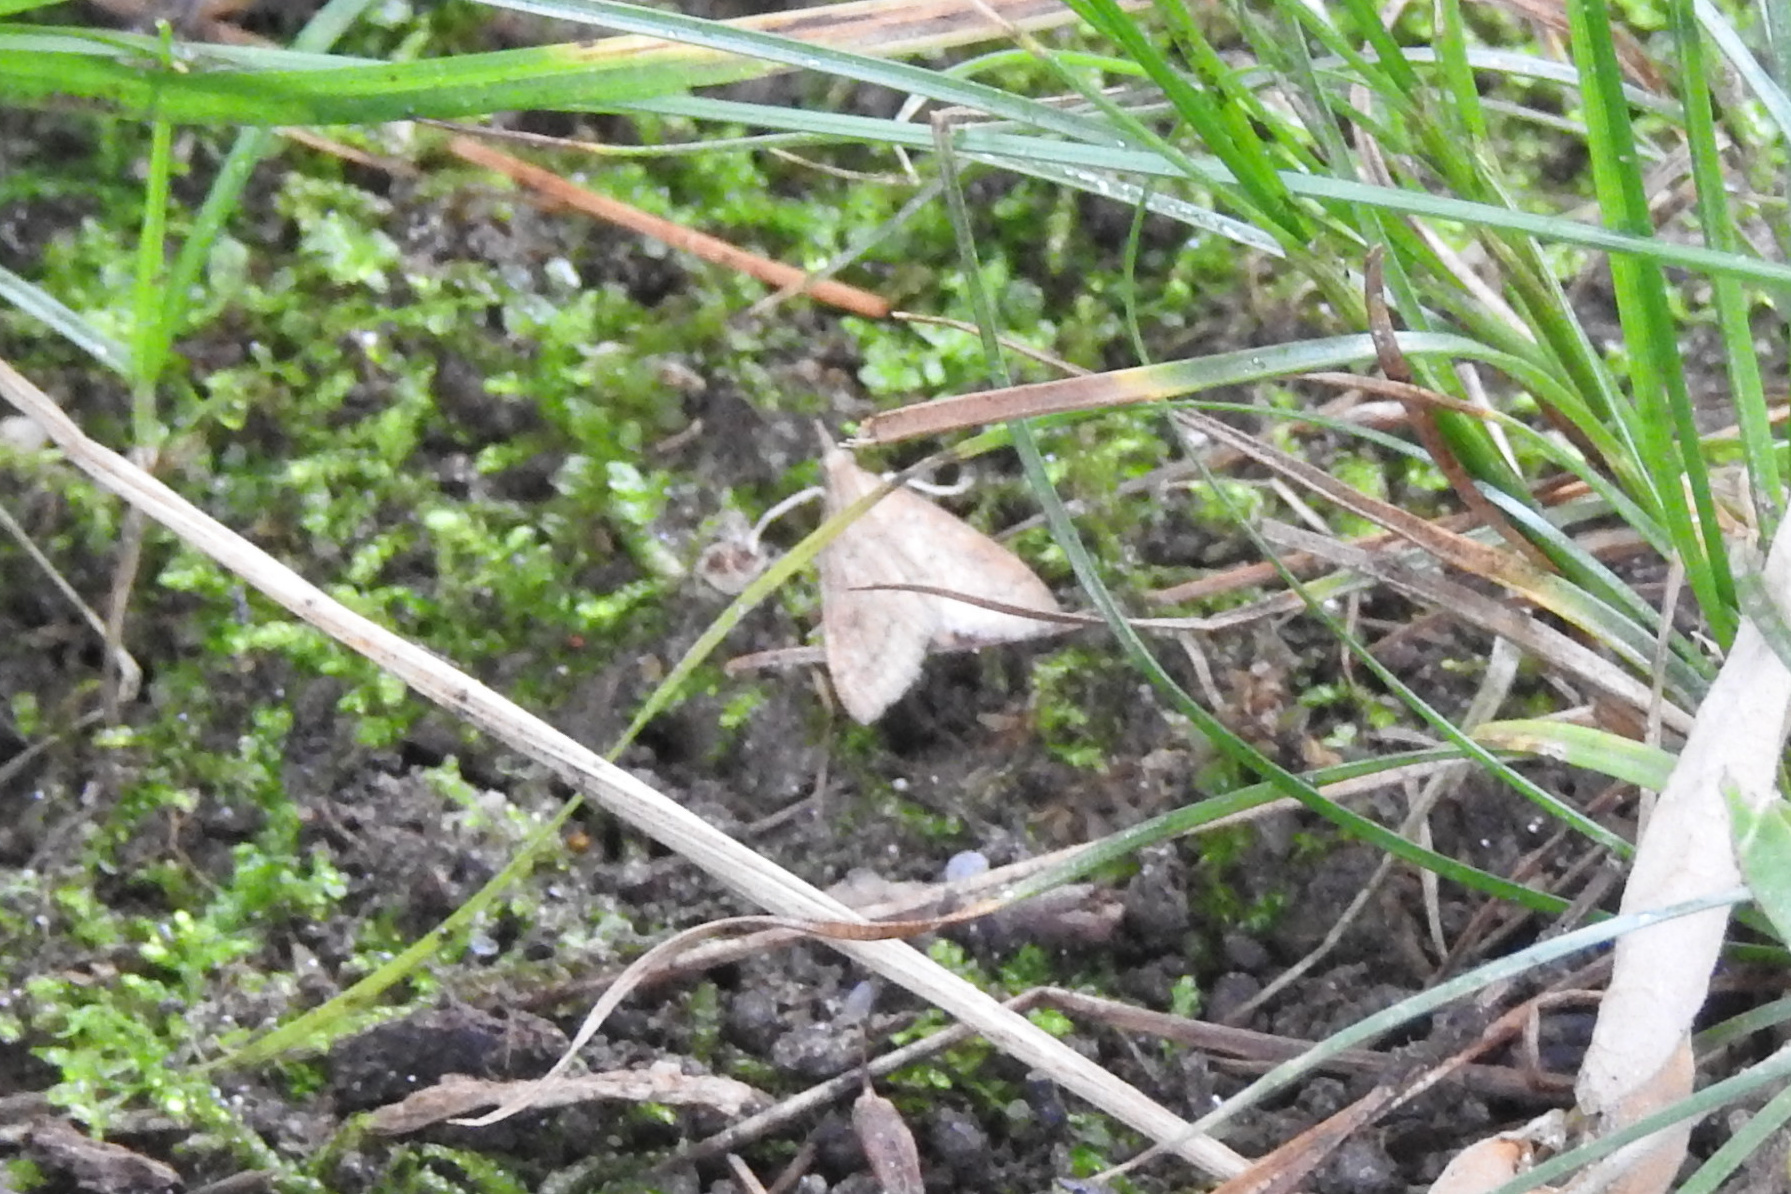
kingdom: Animalia
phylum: Arthropoda
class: Insecta
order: Lepidoptera
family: Crambidae
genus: Udea
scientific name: Udea rubigalis
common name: Celery leaftier moth
